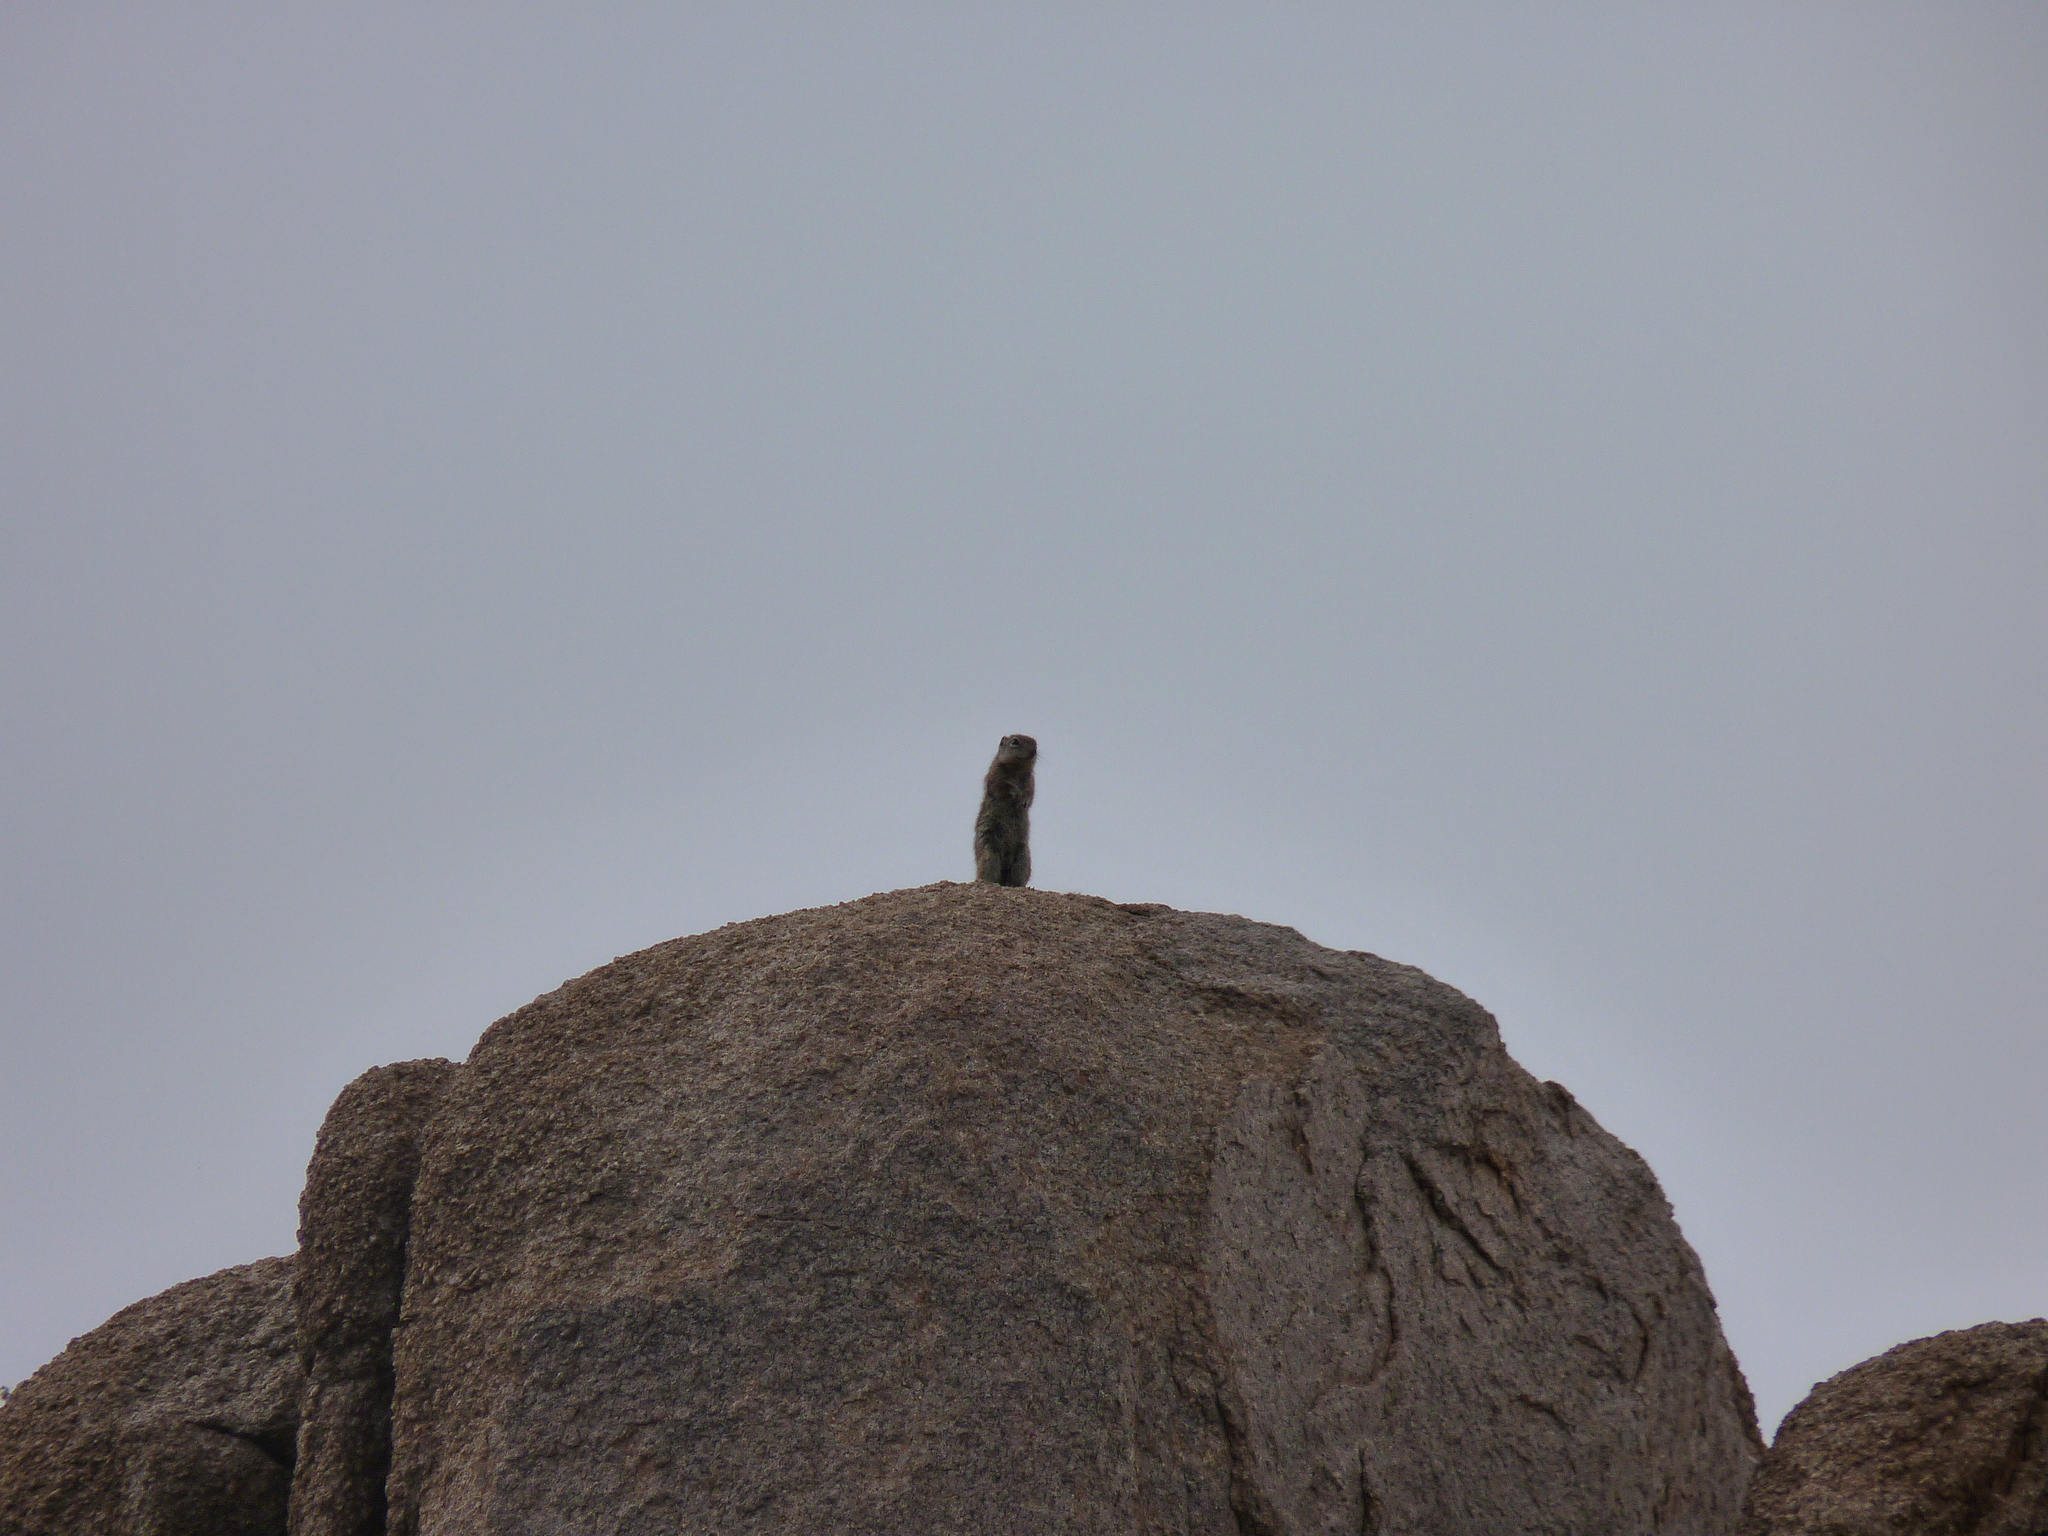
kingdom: Animalia
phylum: Chordata
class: Mammalia
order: Rodentia
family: Sciuridae
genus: Otospermophilus
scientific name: Otospermophilus variegatus
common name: Rock squirrel
